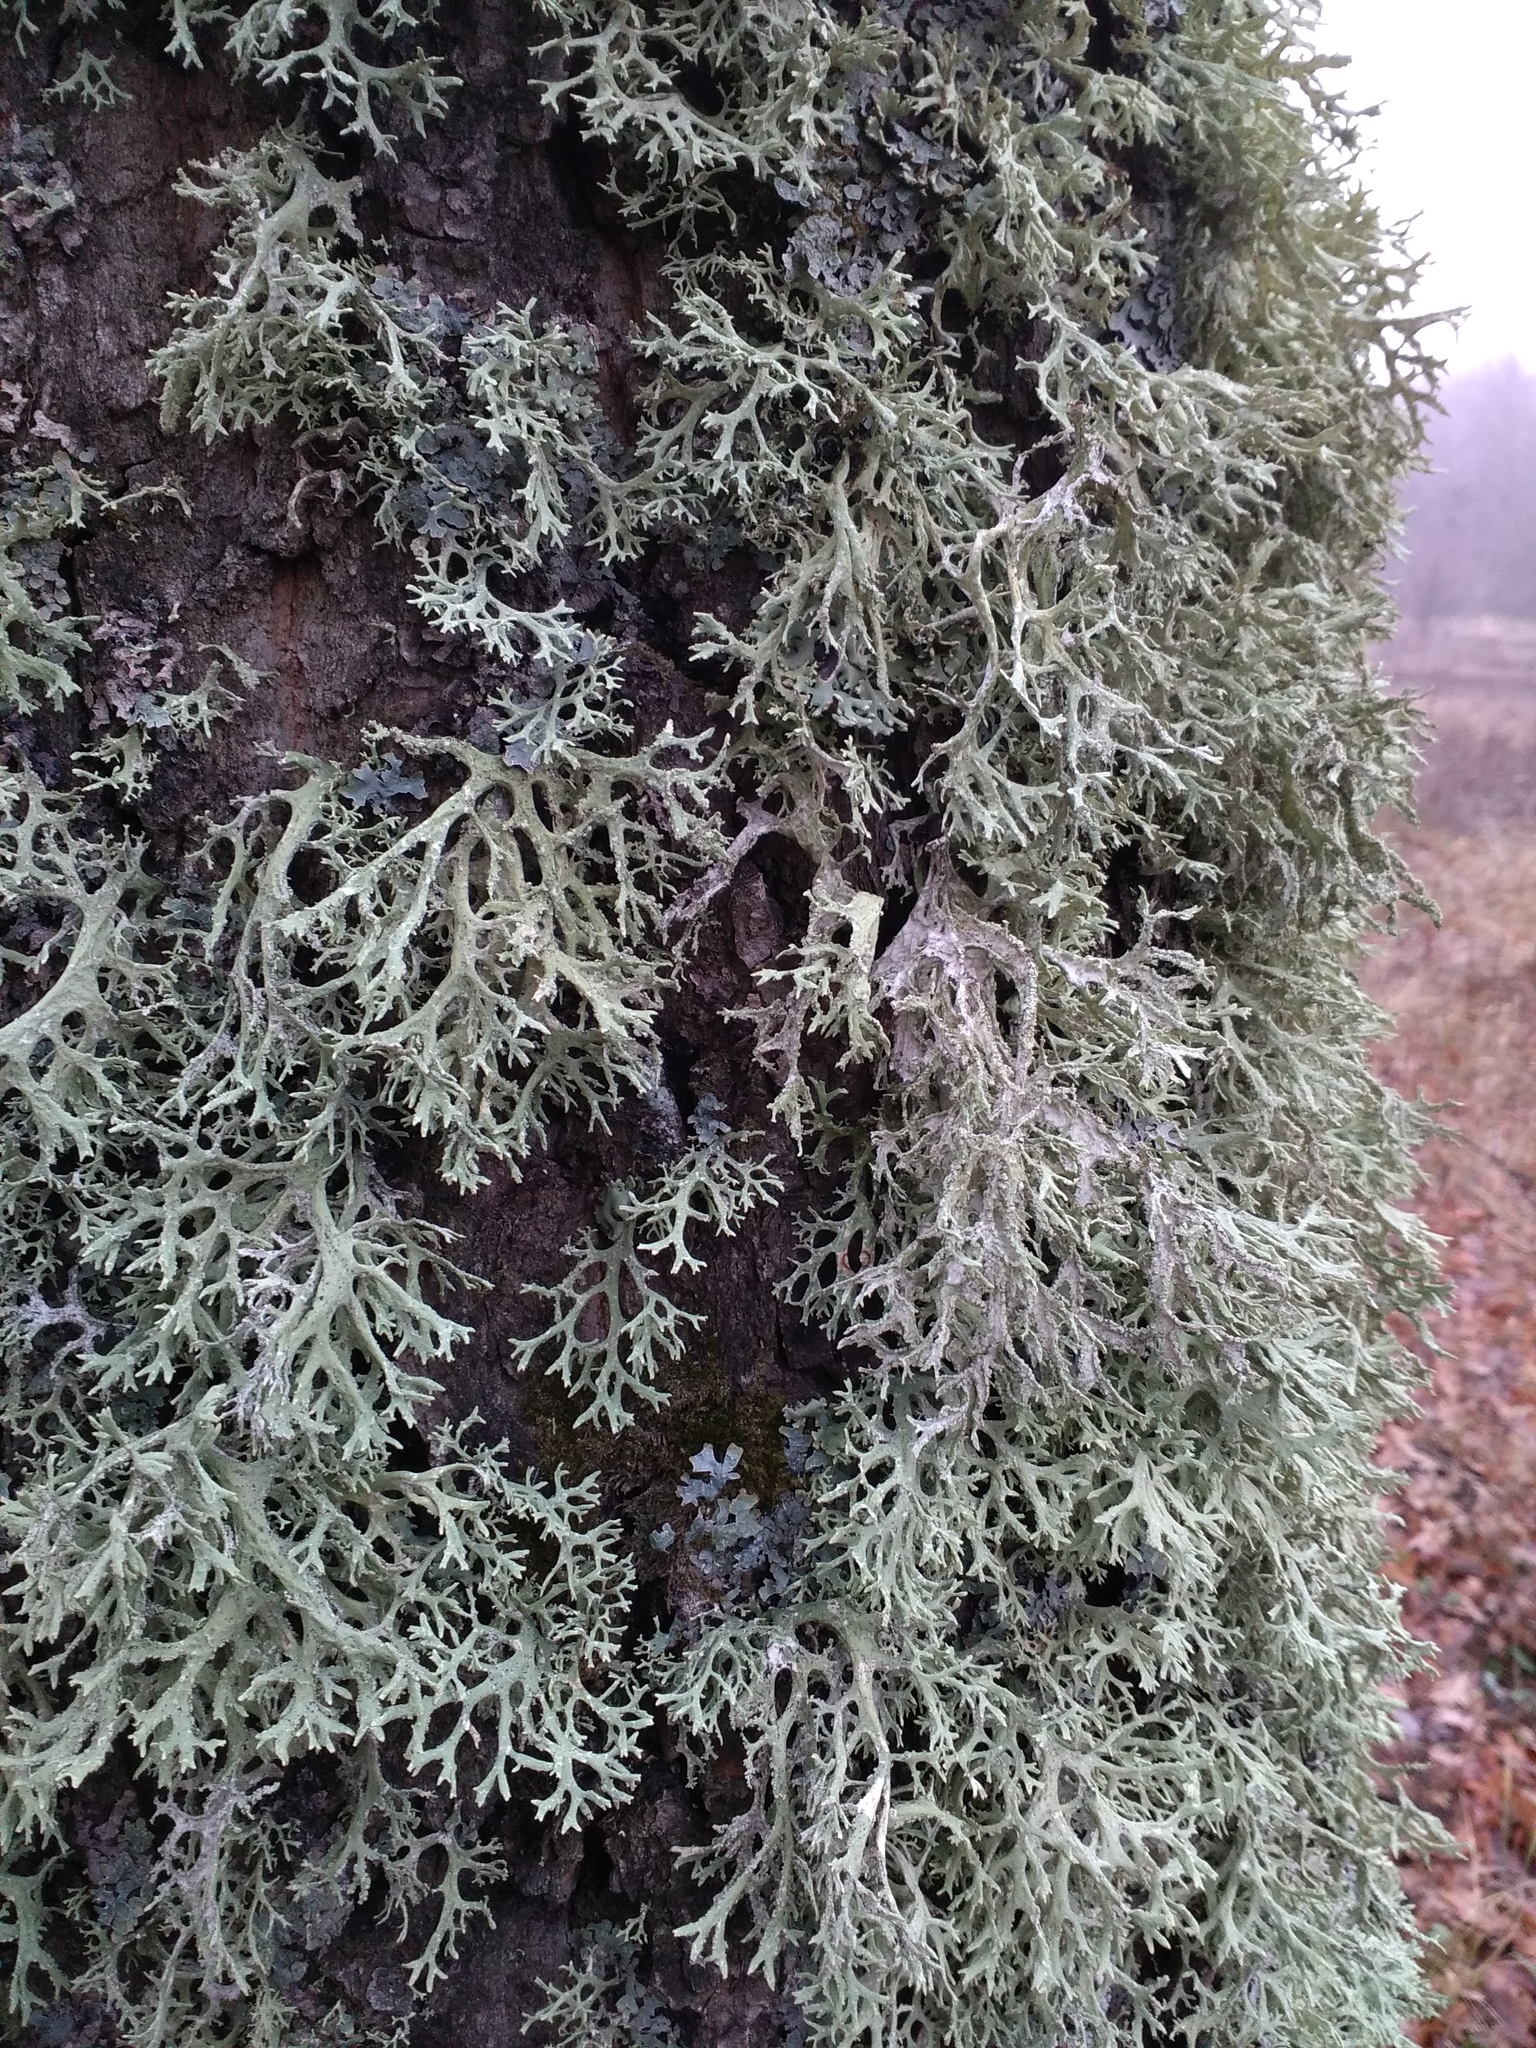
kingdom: Fungi
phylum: Ascomycota
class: Lecanoromycetes
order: Lecanorales
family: Parmeliaceae
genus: Evernia
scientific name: Evernia prunastri
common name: Oak moss
